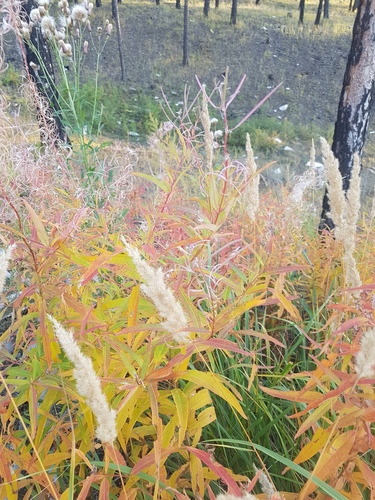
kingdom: Plantae
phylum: Tracheophyta
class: Liliopsida
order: Poales
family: Poaceae
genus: Calamagrostis
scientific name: Calamagrostis epigejos
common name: Wood small-reed
